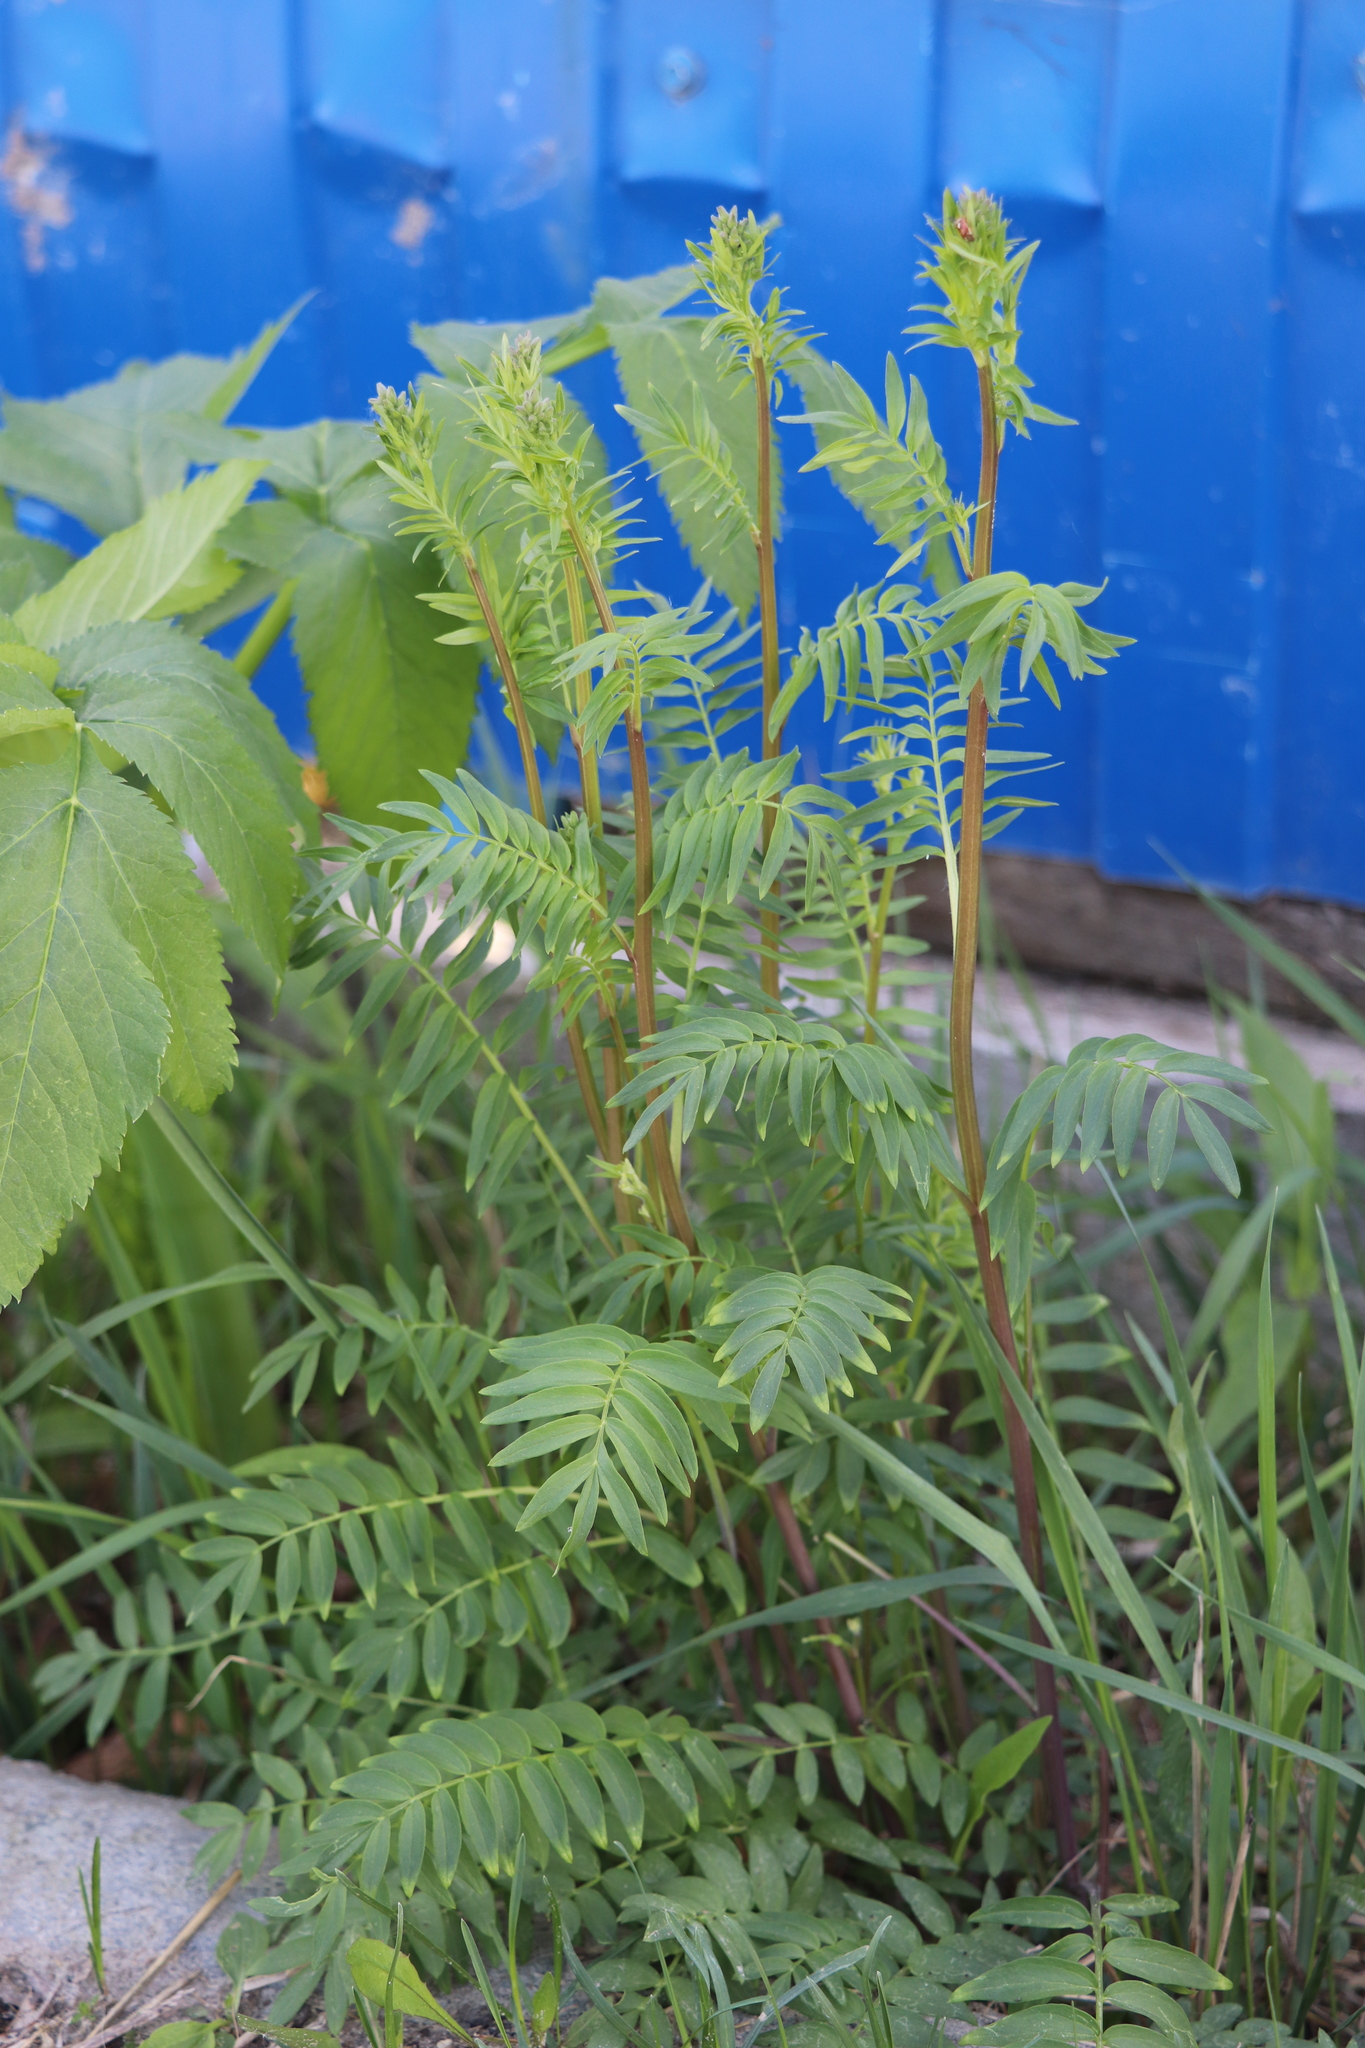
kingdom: Plantae
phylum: Tracheophyta
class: Magnoliopsida
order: Ericales
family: Polemoniaceae
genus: Polemonium
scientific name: Polemonium caeruleum
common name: Jacob's-ladder
